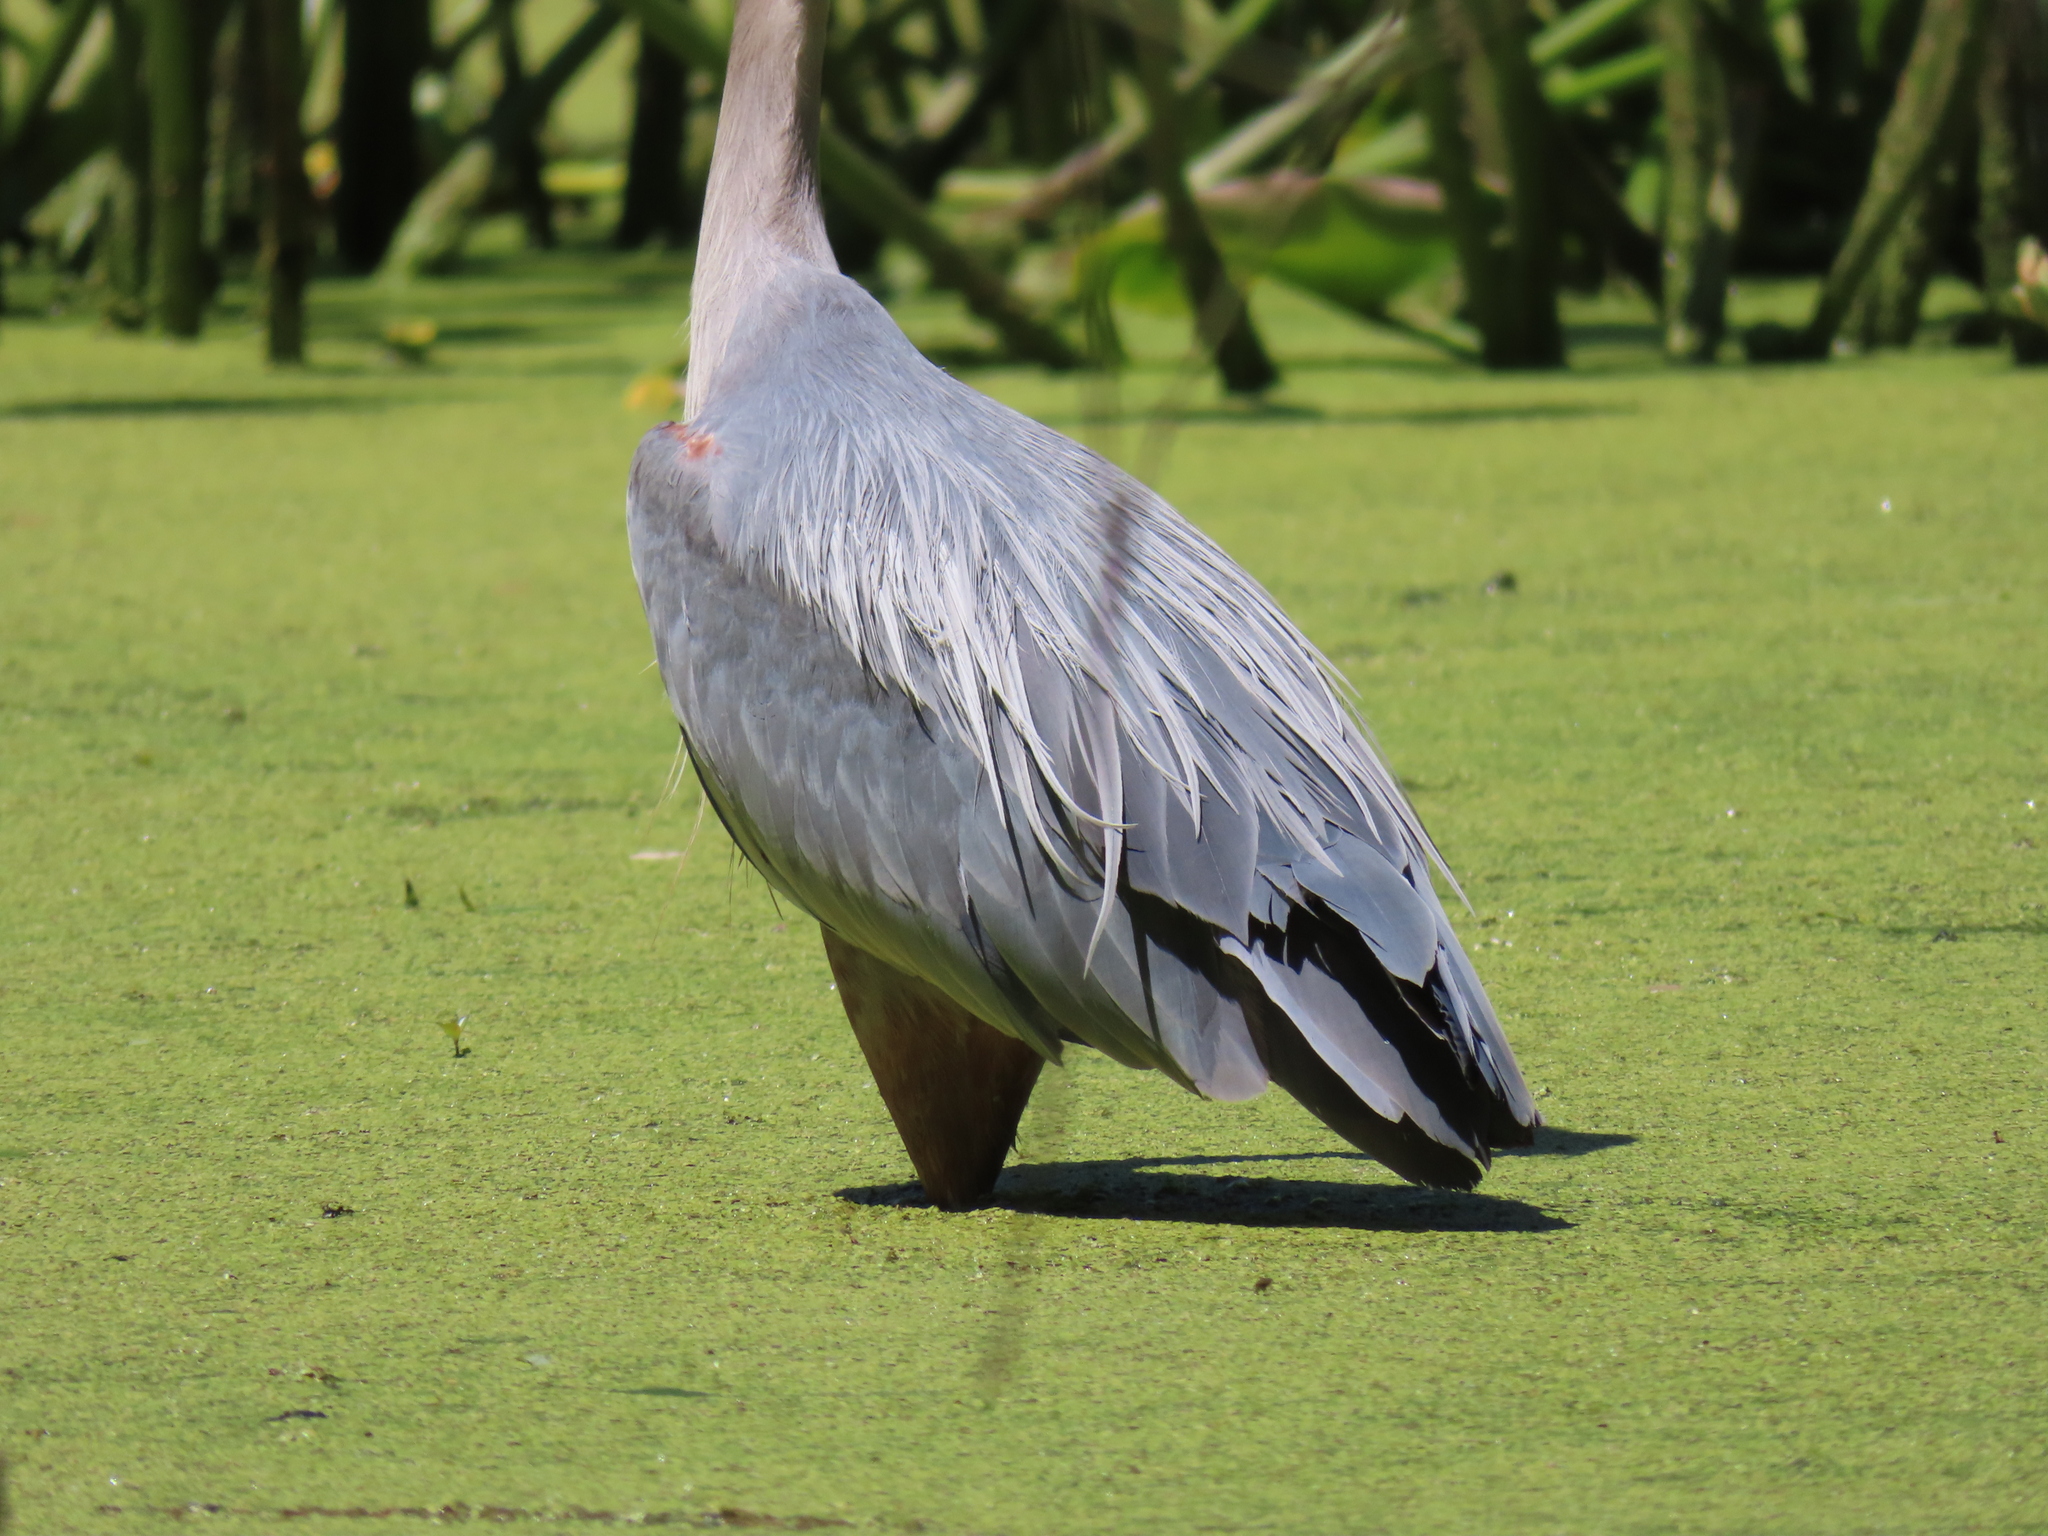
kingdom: Animalia
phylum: Chordata
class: Aves
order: Pelecaniformes
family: Ardeidae
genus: Ardea
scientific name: Ardea herodias
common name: Great blue heron
